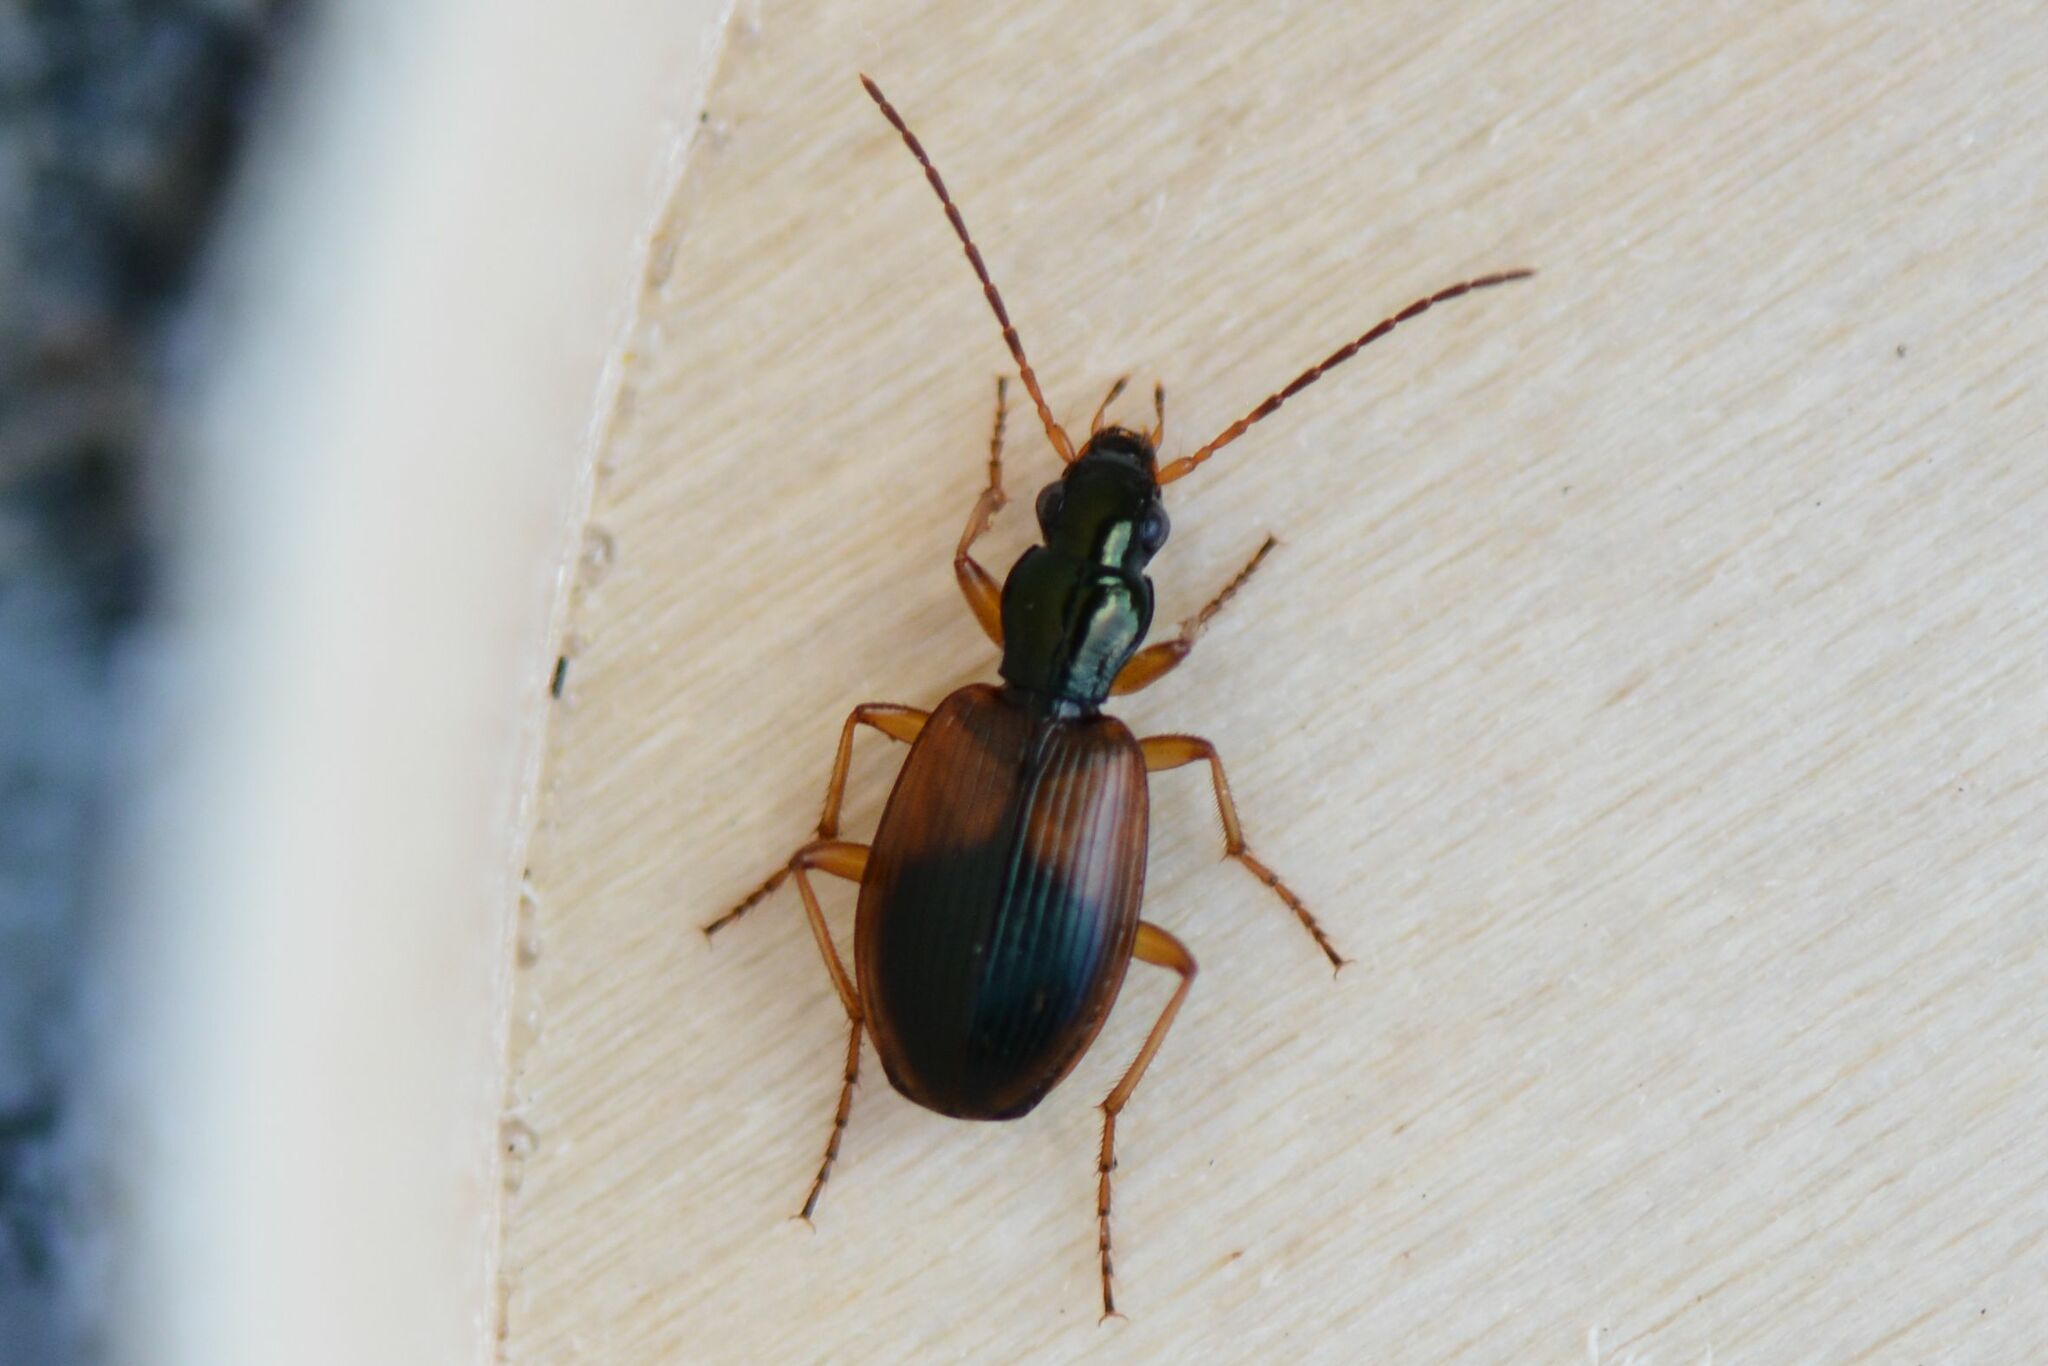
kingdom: Animalia
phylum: Arthropoda
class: Insecta
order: Coleoptera
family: Carabidae
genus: Anchomenus
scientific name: Anchomenus dorsalis
